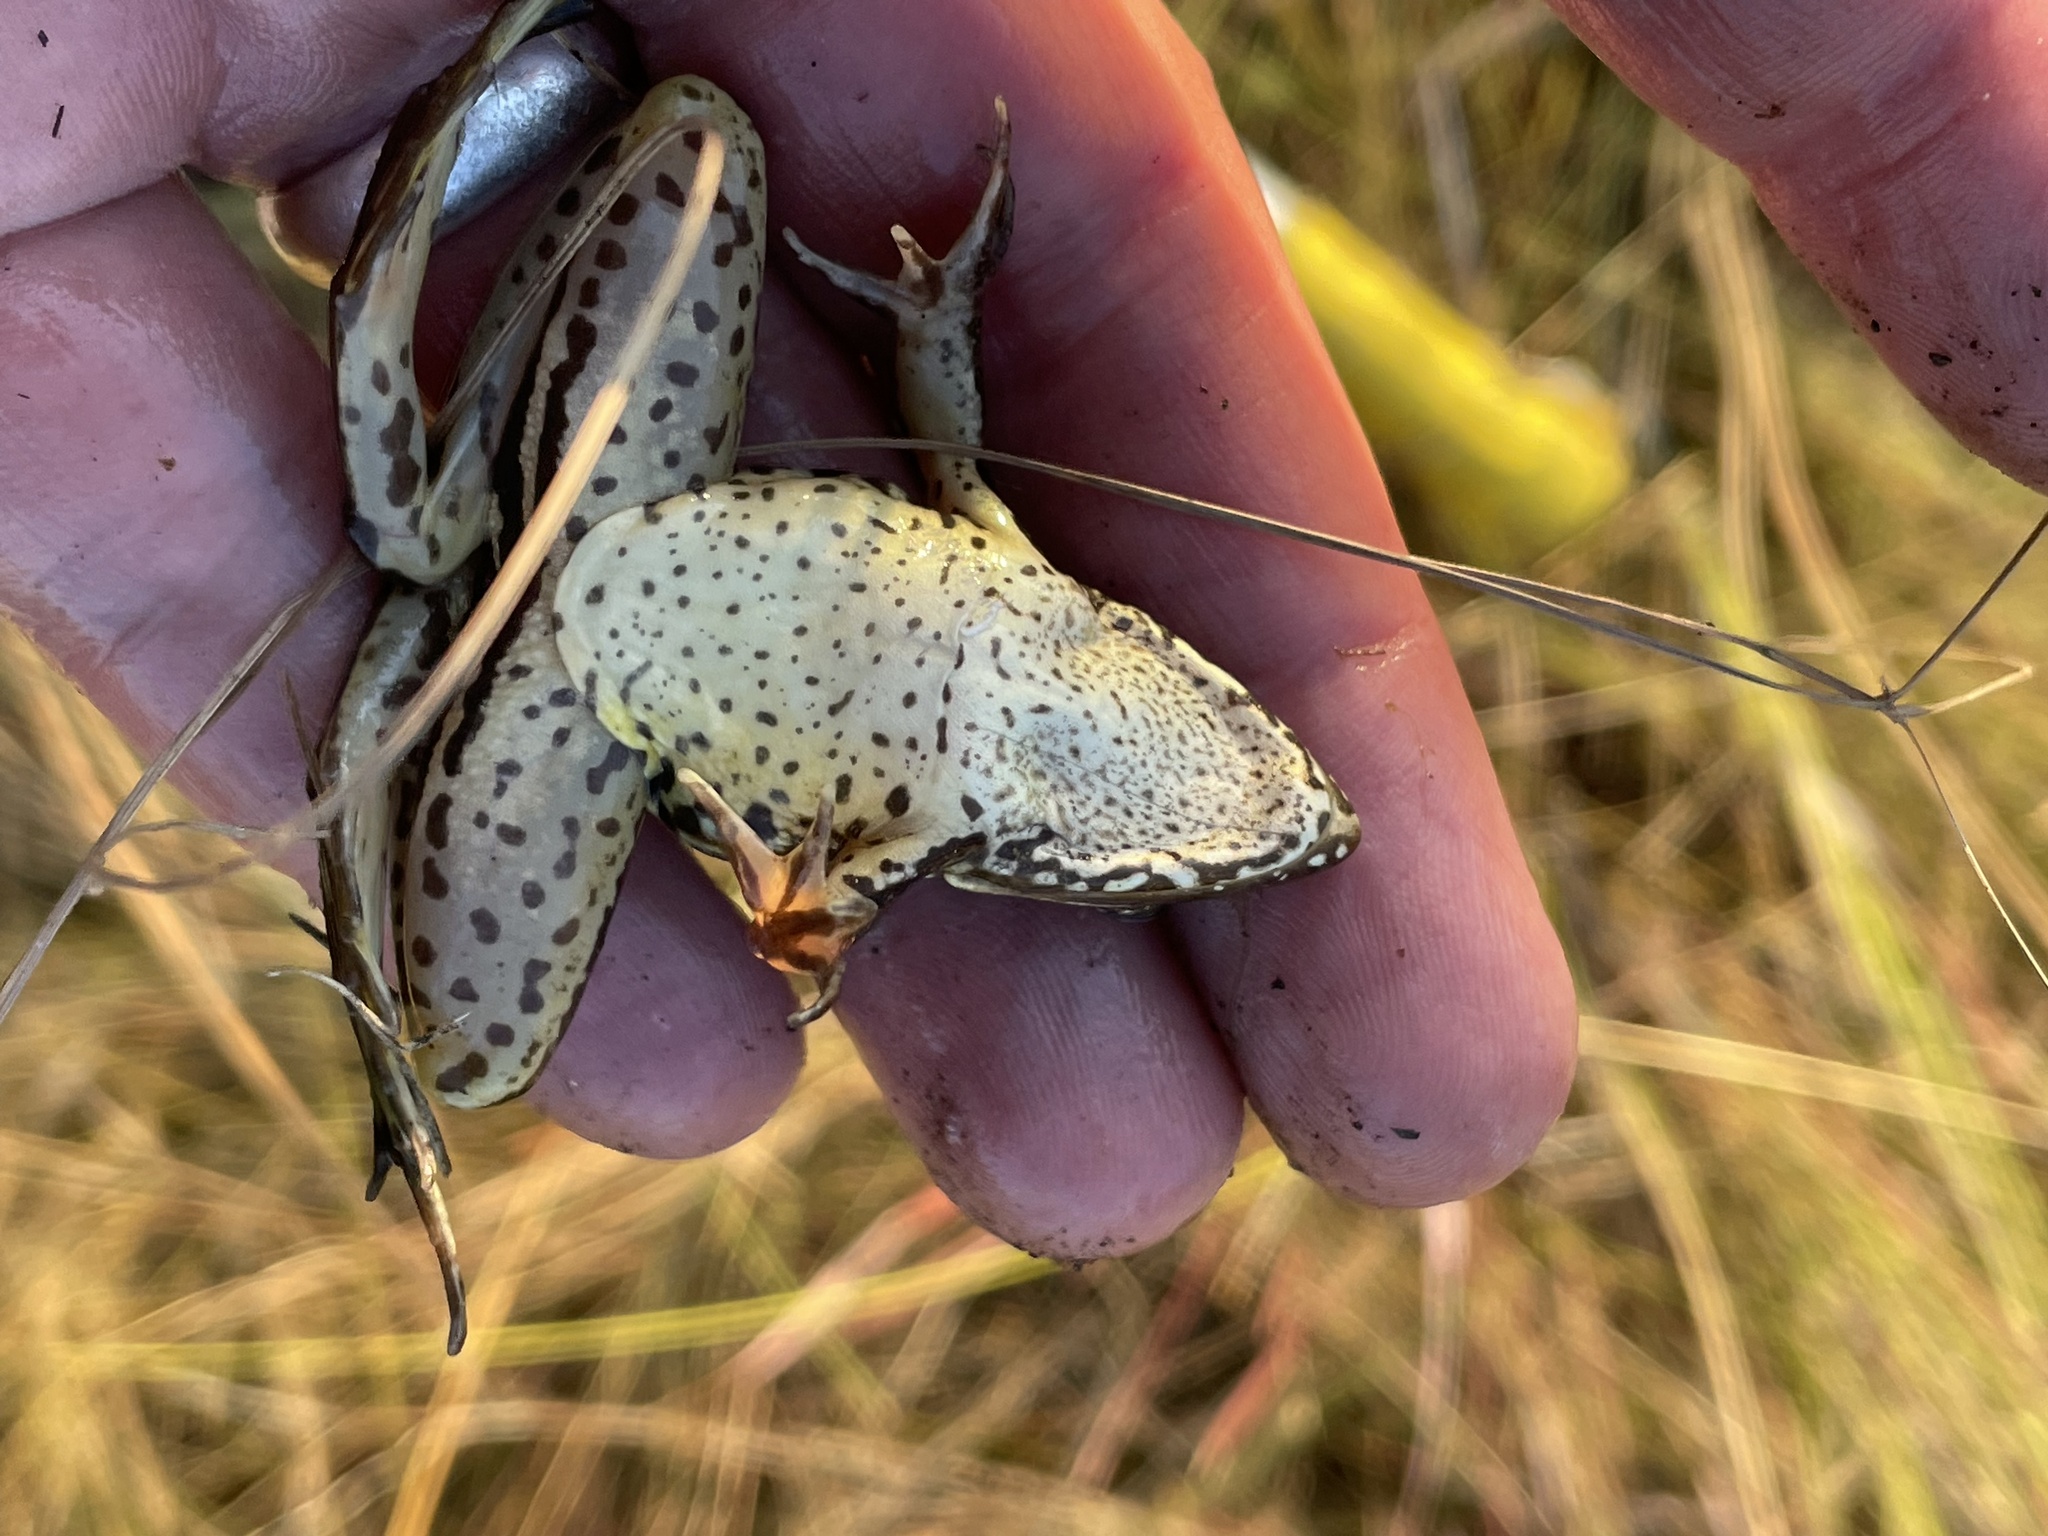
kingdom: Animalia
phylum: Chordata
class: Amphibia
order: Anura
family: Ptychadenidae
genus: Ptychadena
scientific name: Ptychadena subpunctata
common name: Bocage's grassland frog
